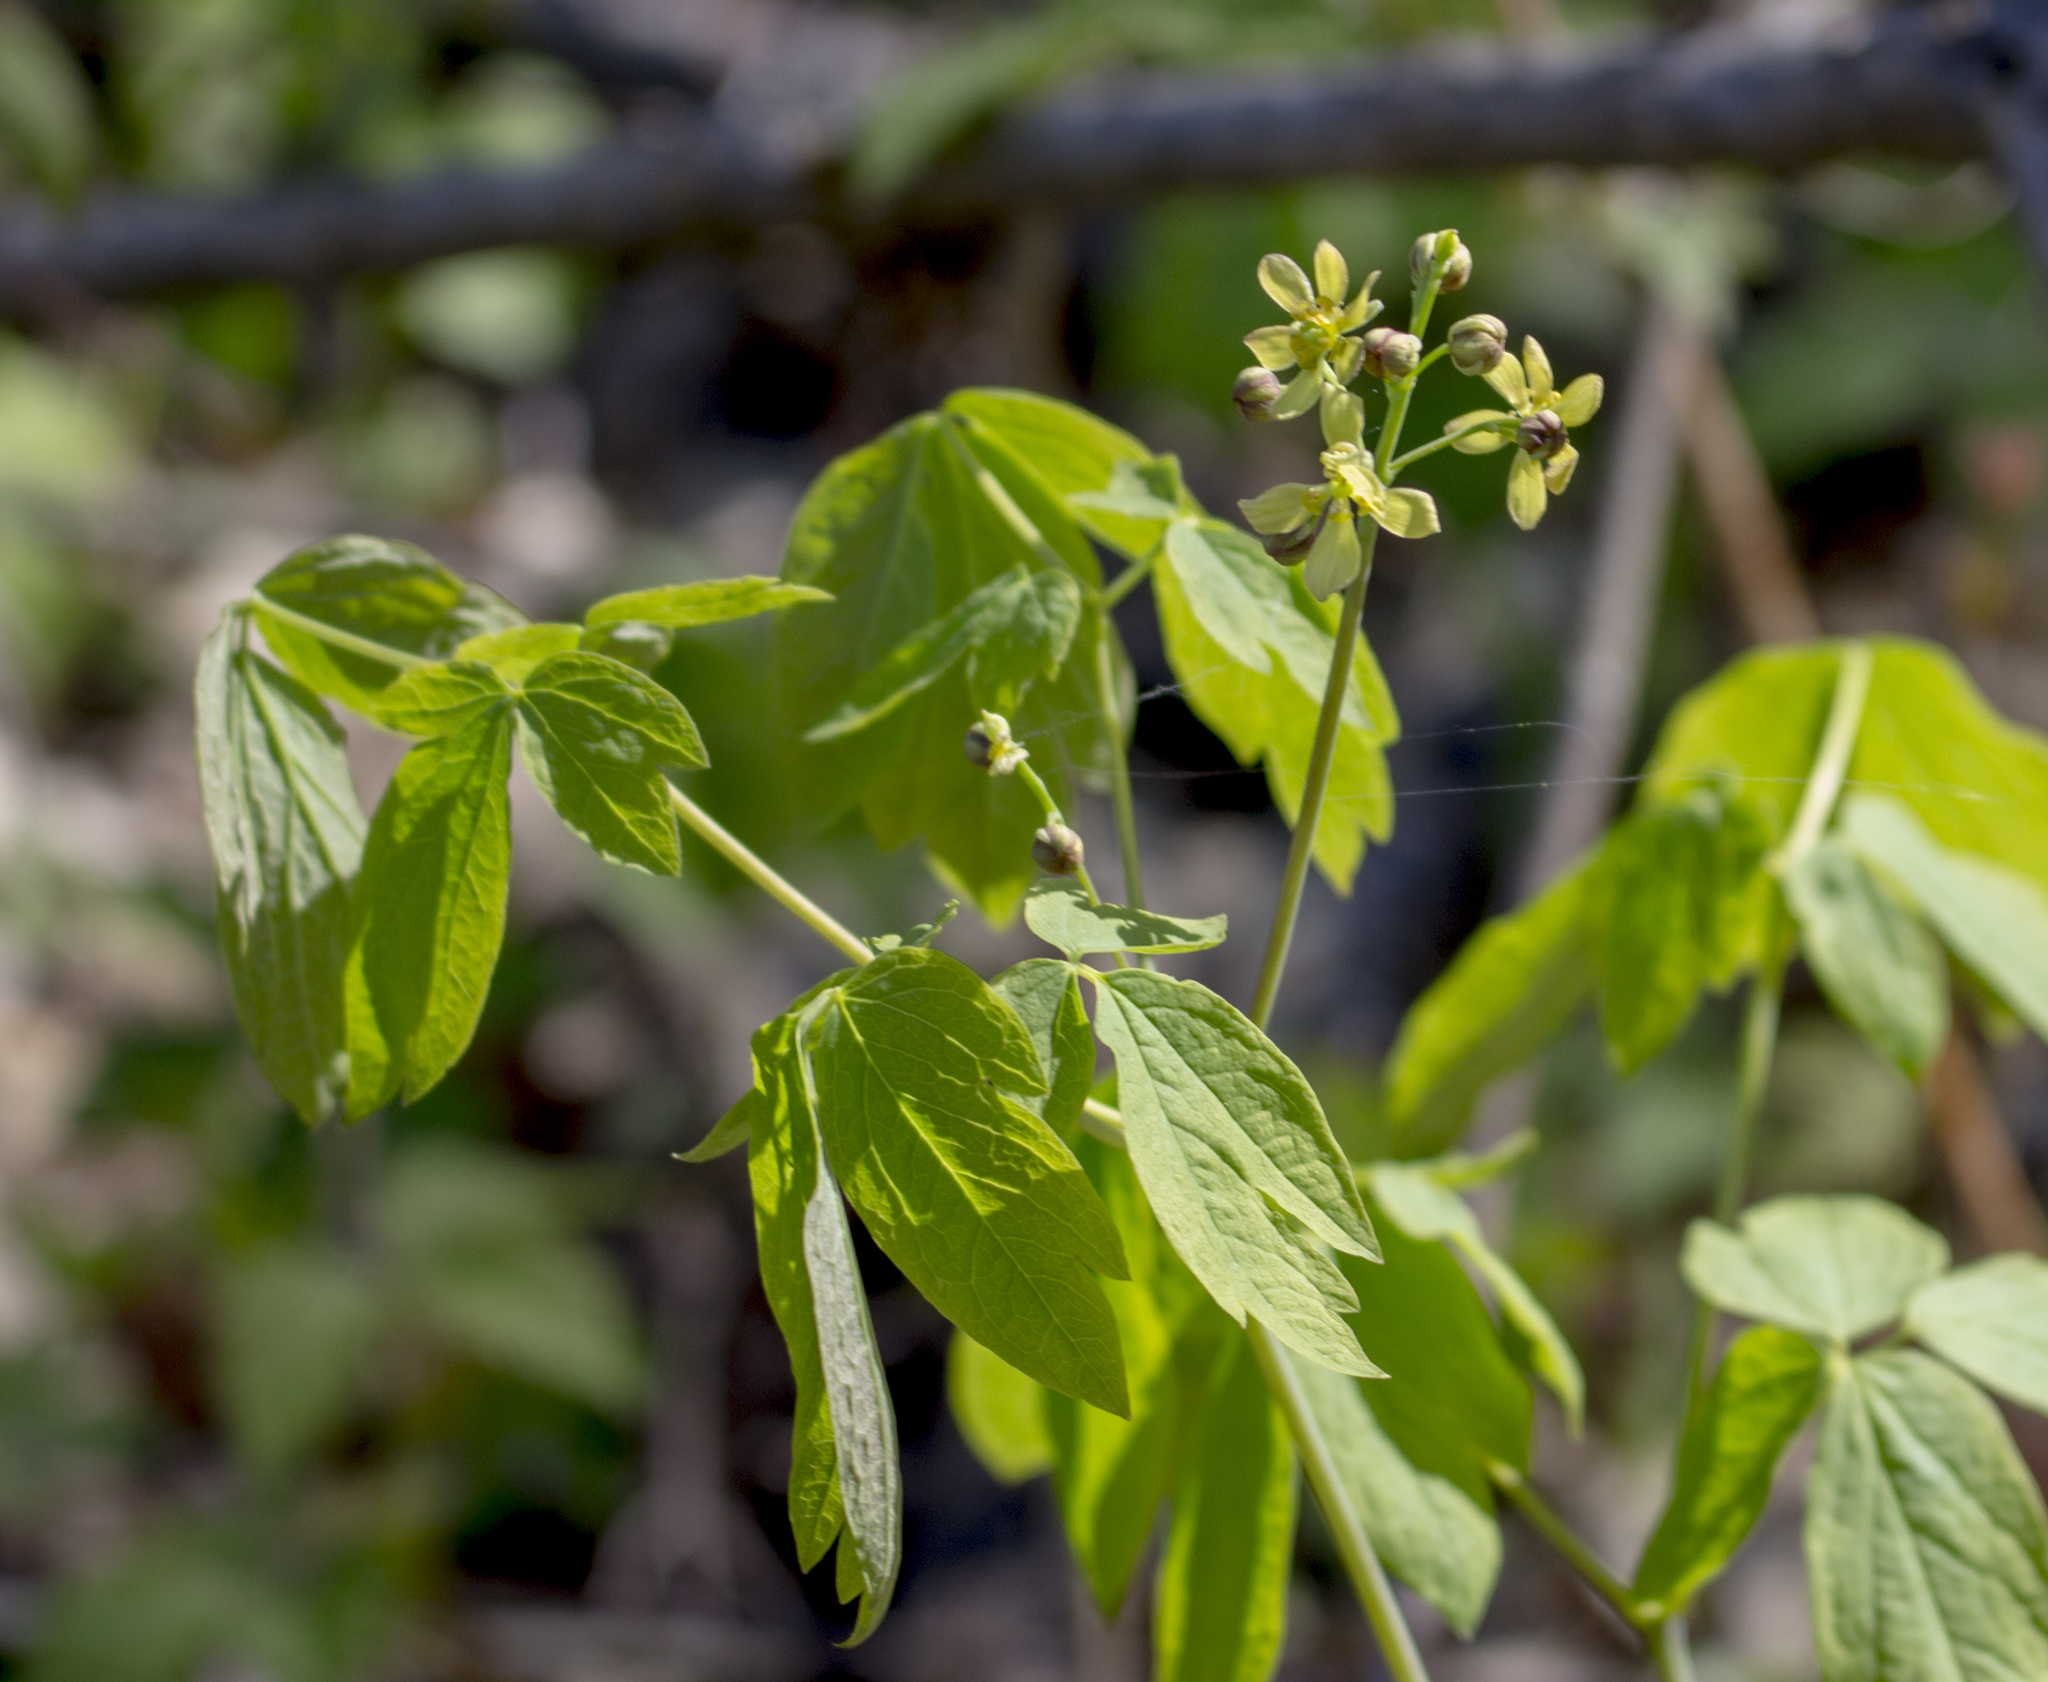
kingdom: Plantae
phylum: Tracheophyta
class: Magnoliopsida
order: Ranunculales
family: Berberidaceae
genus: Caulophyllum
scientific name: Caulophyllum thalictroides
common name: Blue cohosh
